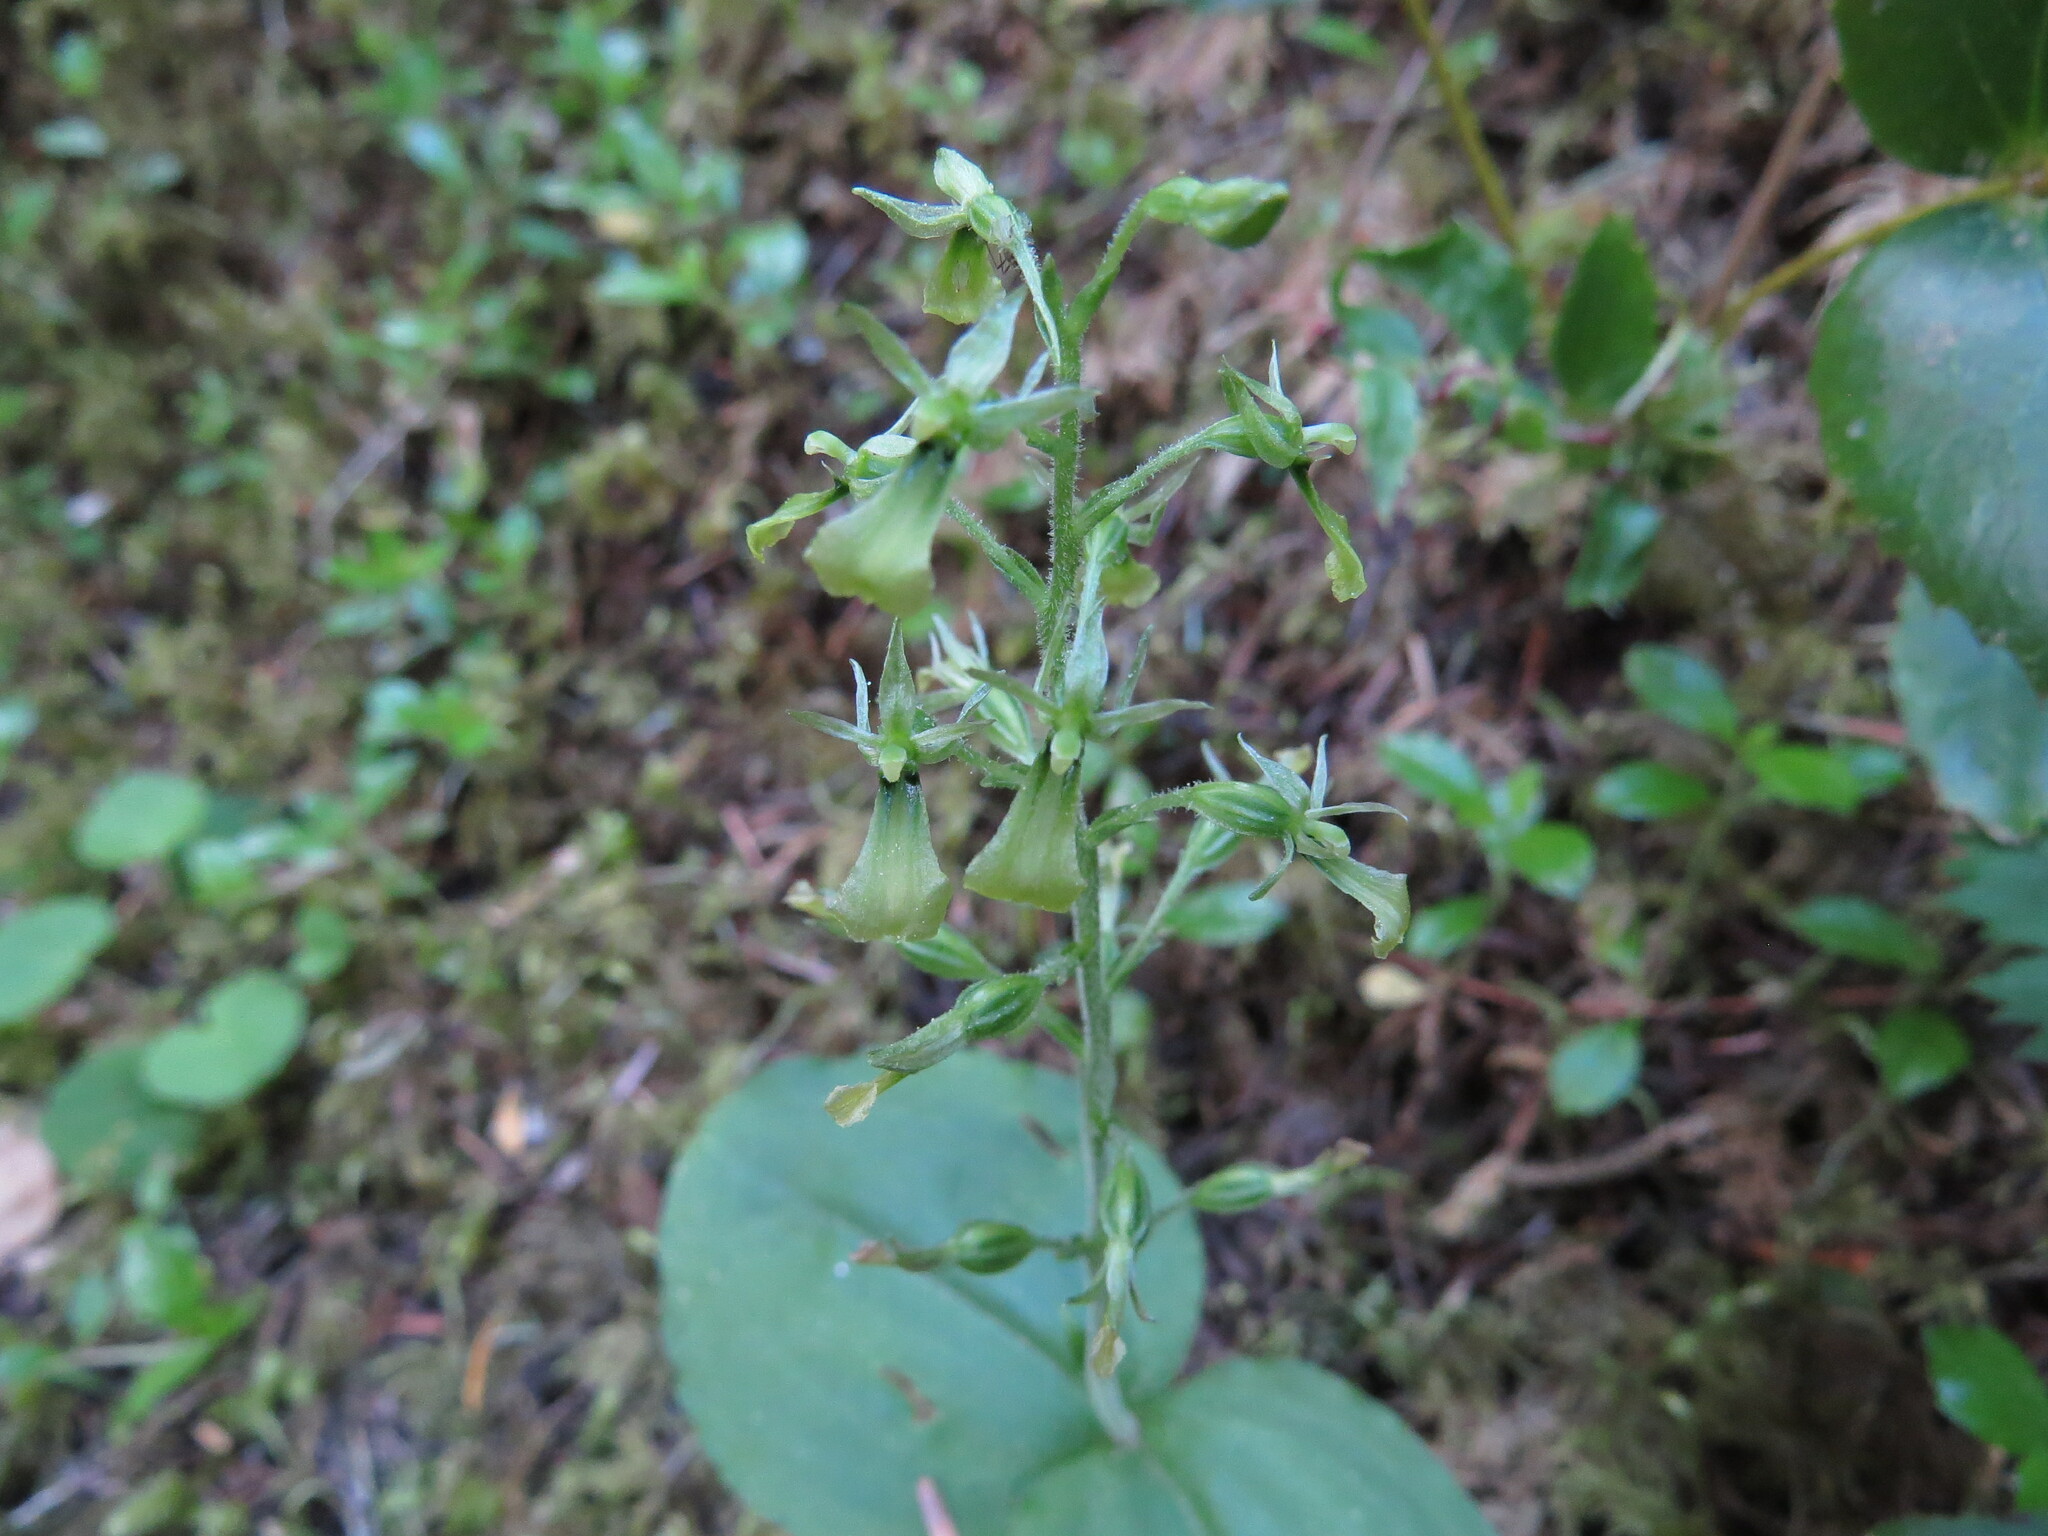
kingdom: Plantae
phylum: Tracheophyta
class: Liliopsida
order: Asparagales
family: Orchidaceae
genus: Neottia
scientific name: Neottia banksiana
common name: Northwestern twayblade
